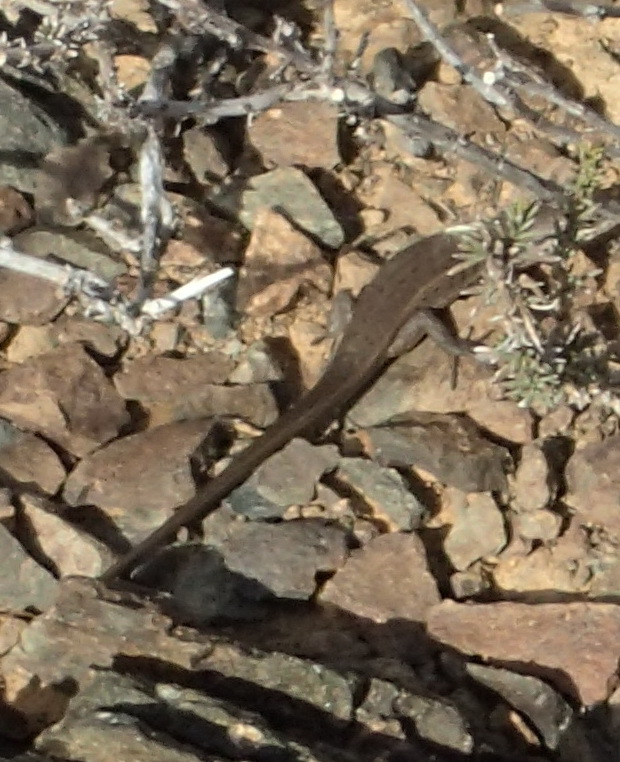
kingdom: Animalia
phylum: Chordata
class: Squamata
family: Scincidae
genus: Trachylepis
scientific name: Trachylepis variegata
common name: Variegated skink
